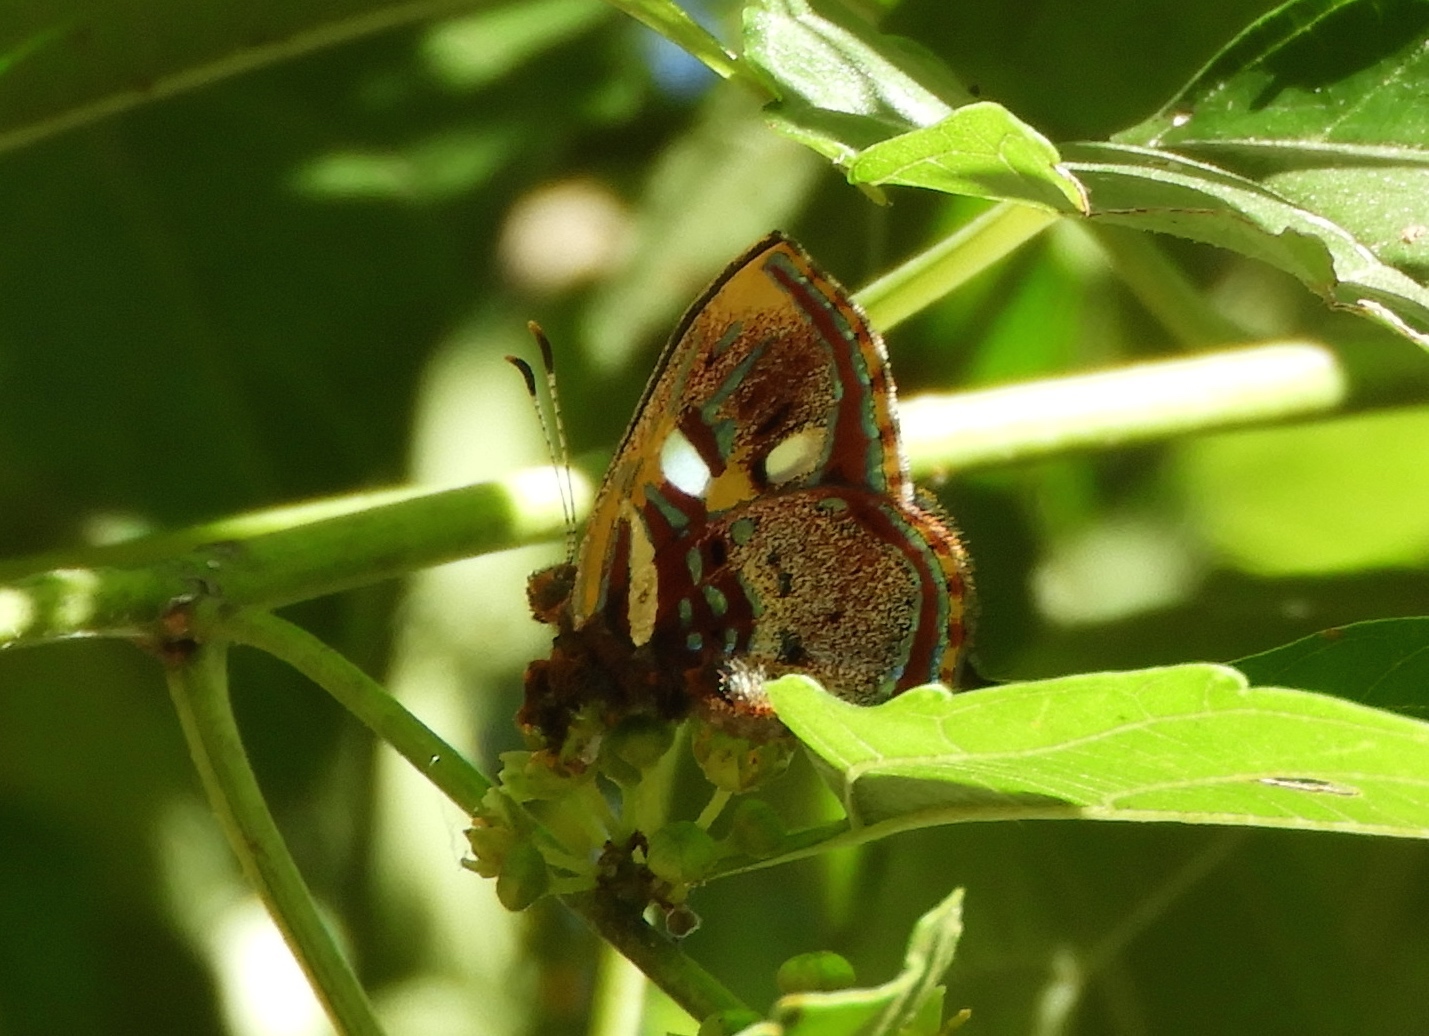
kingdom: Animalia
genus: Anteros
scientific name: Anteros carausius
